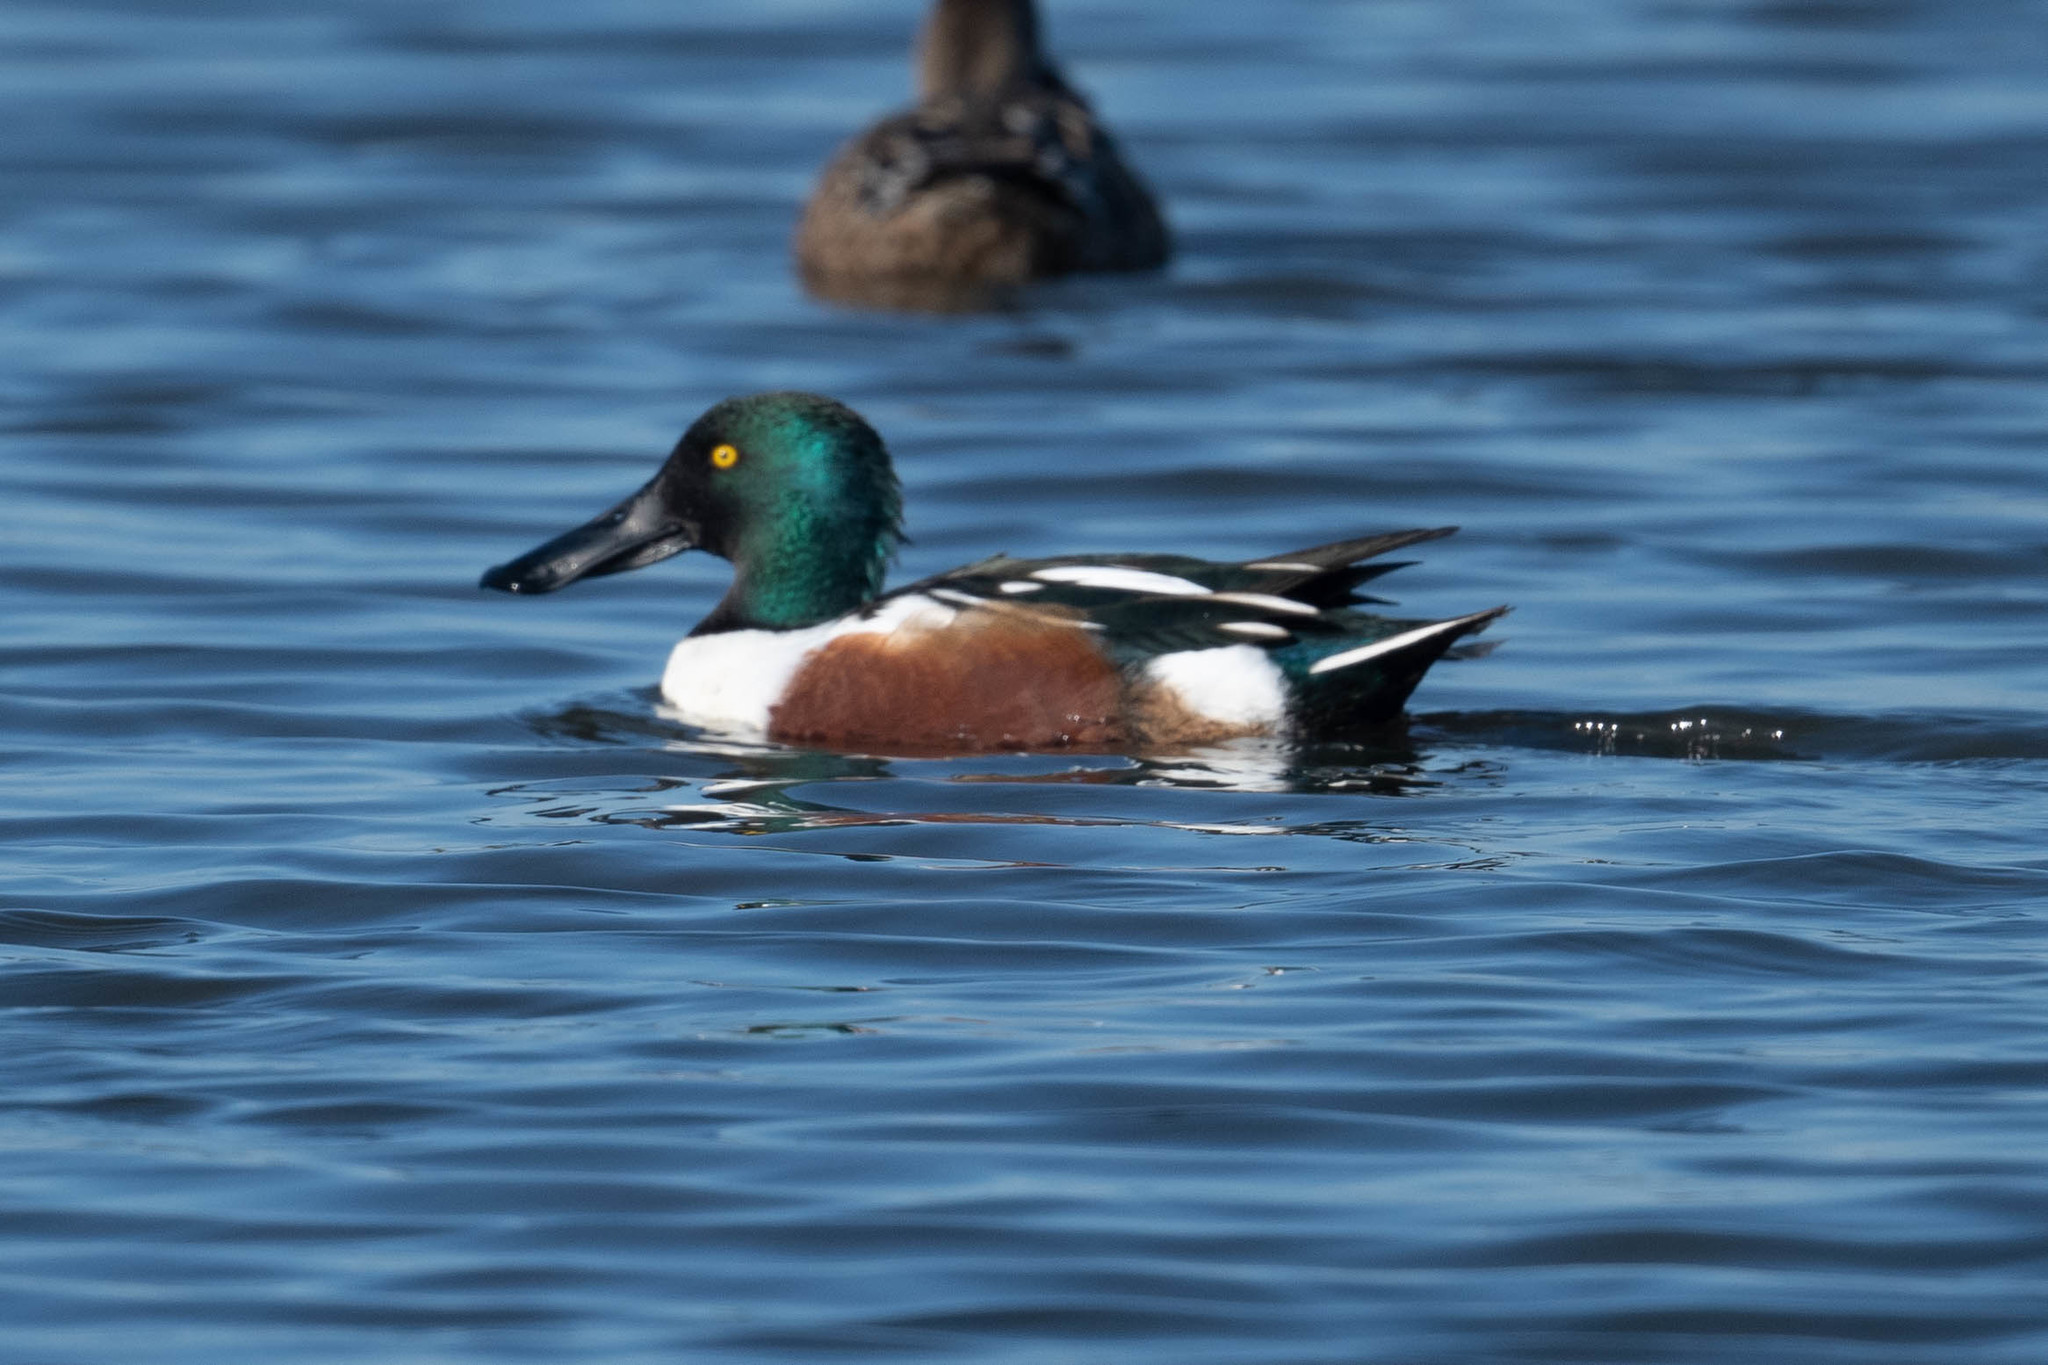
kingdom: Animalia
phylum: Chordata
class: Aves
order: Anseriformes
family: Anatidae
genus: Spatula
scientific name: Spatula clypeata
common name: Northern shoveler
